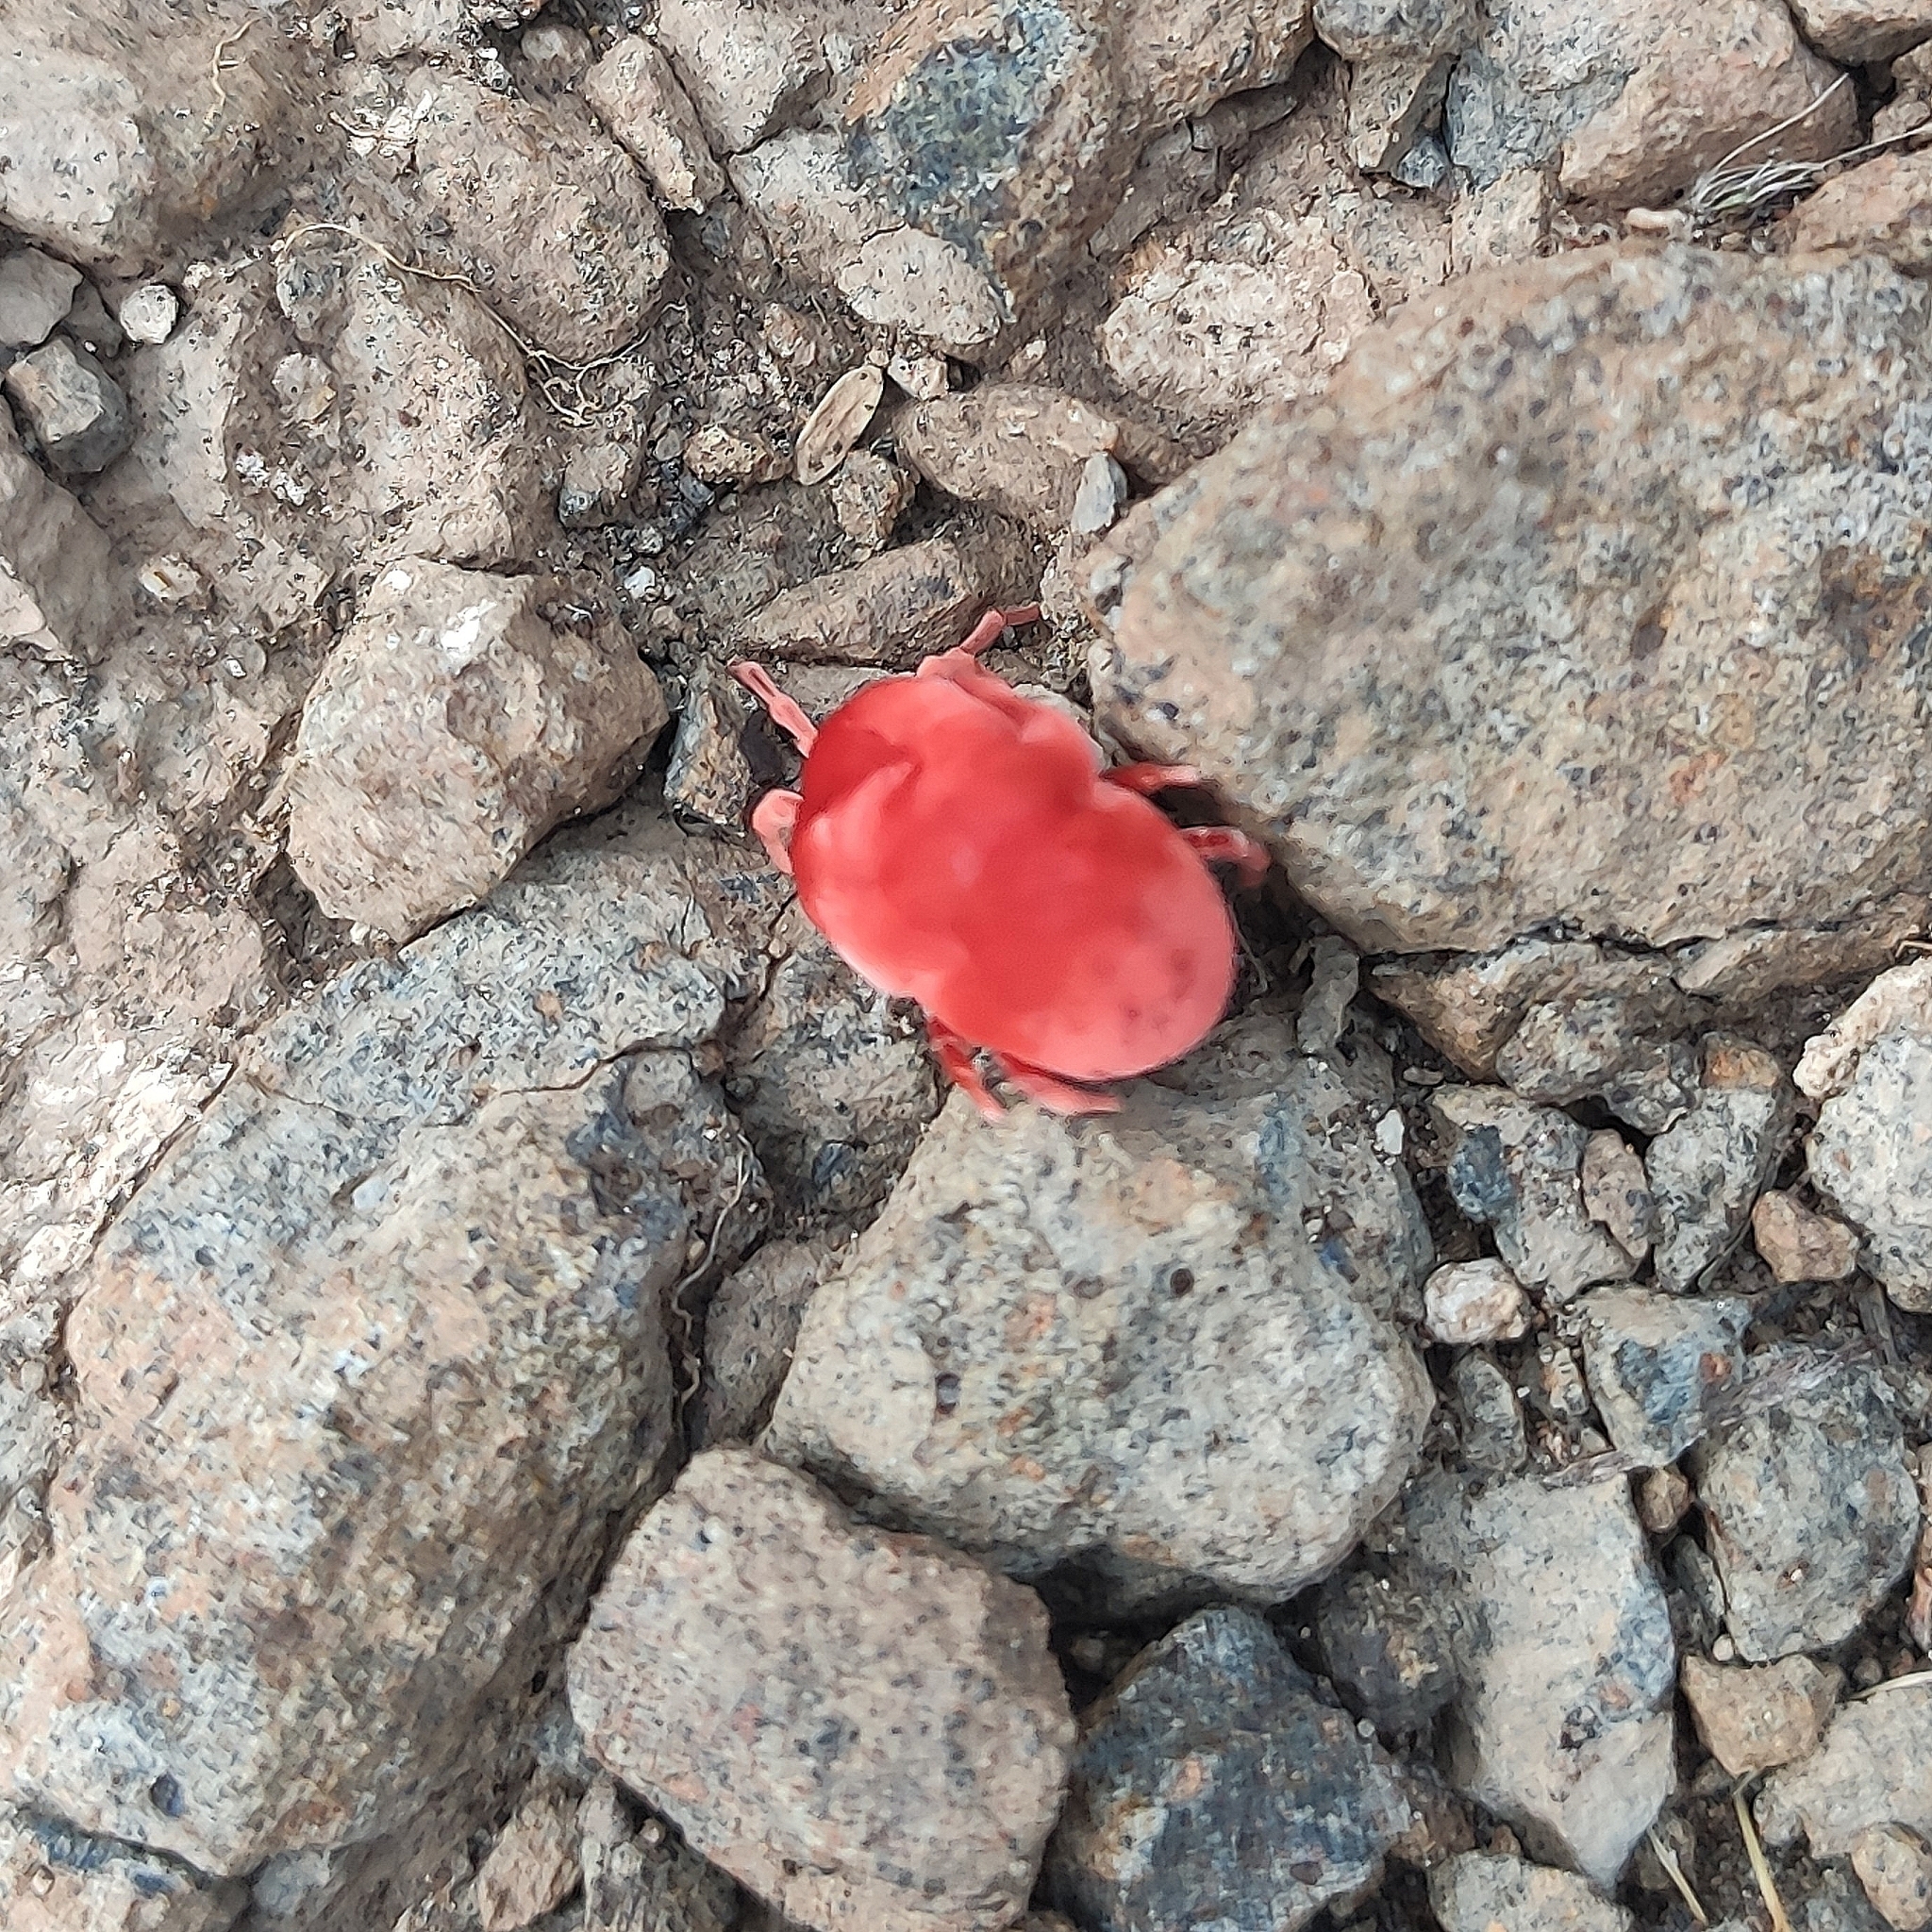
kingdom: Animalia
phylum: Arthropoda
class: Arachnida
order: Trombidiformes
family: Leeuwenhoekiidae
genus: Dinothrombium
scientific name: Dinothrombium
